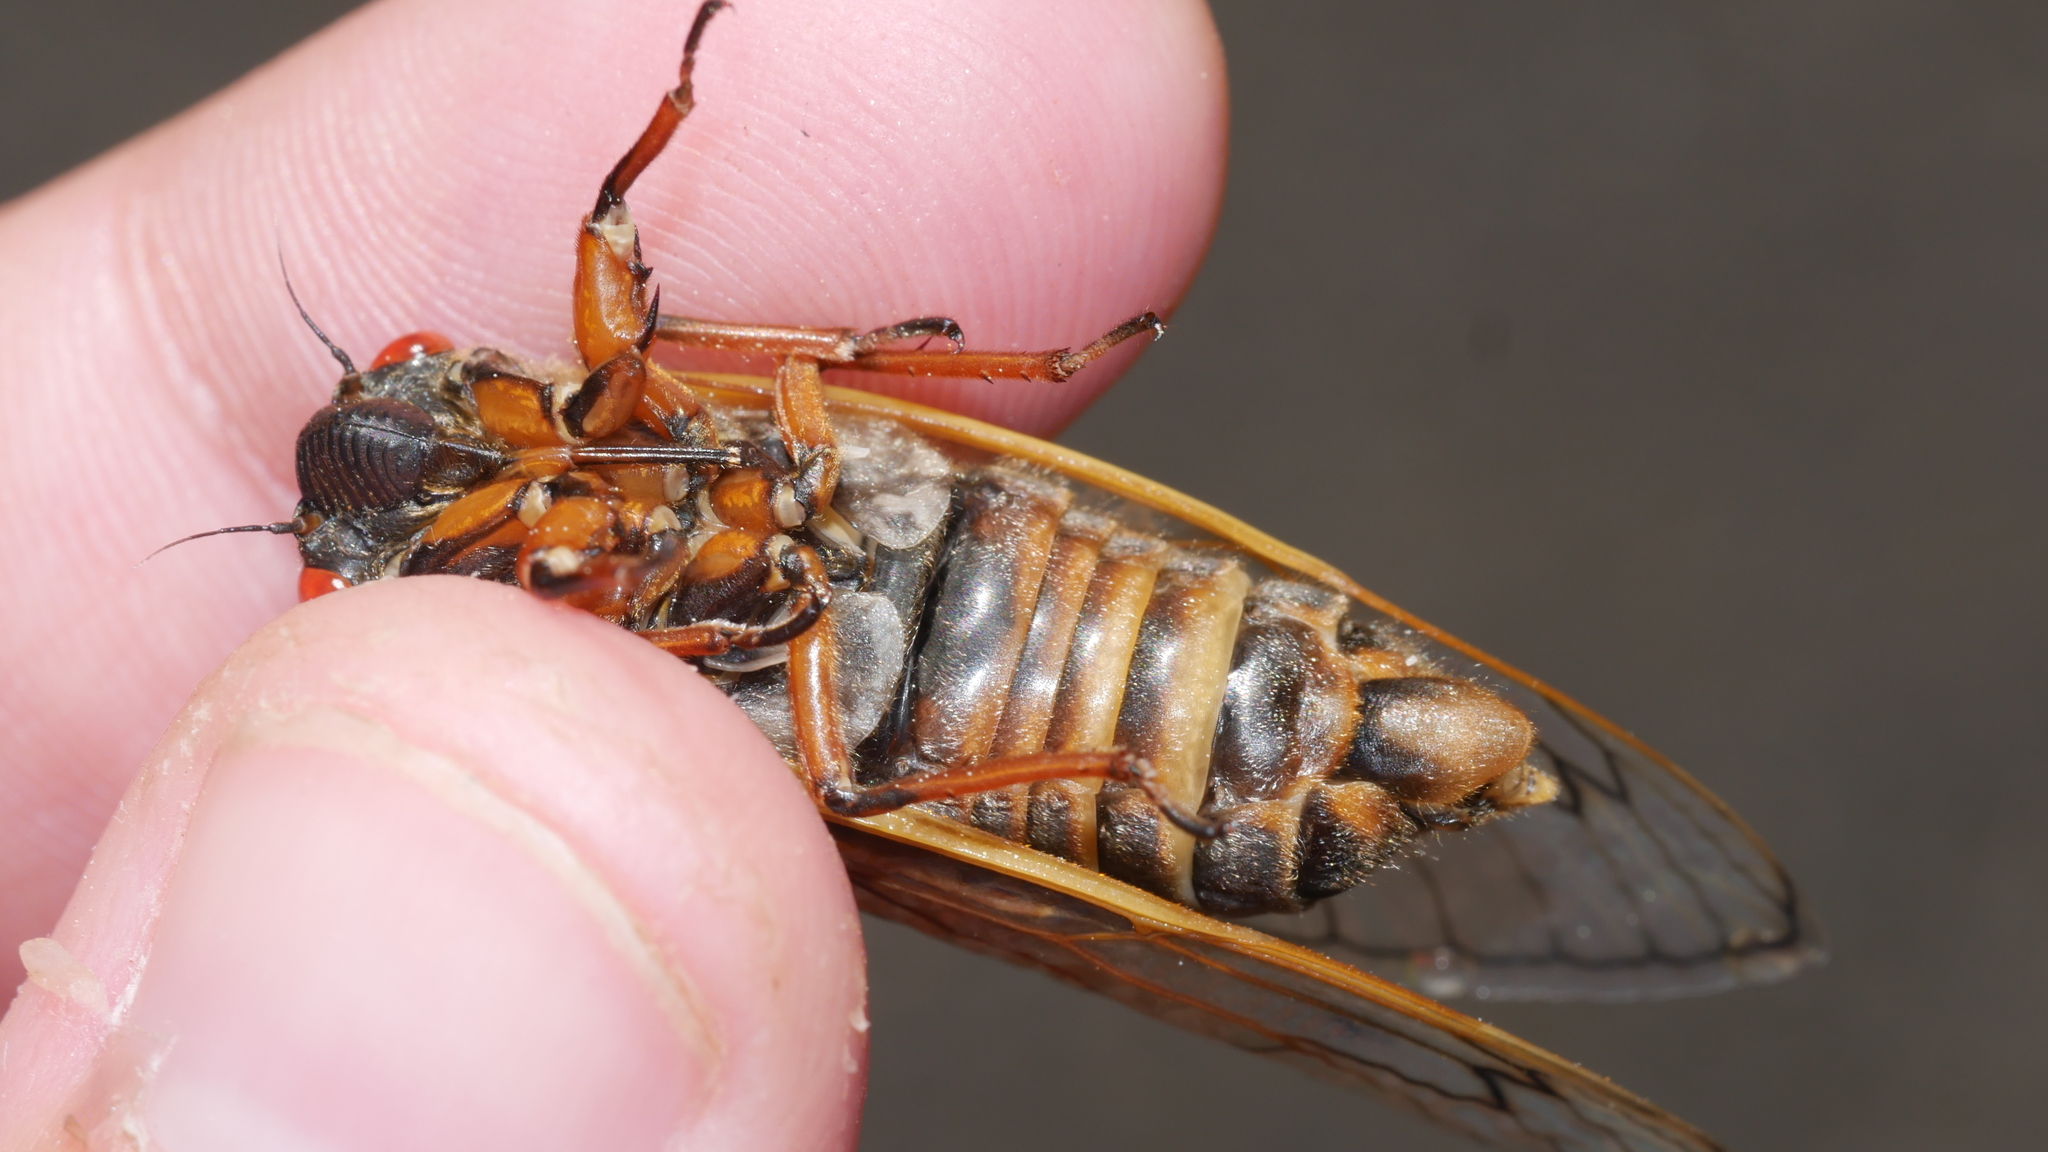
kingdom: Animalia
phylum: Arthropoda
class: Insecta
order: Hemiptera
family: Cicadidae
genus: Magicicada
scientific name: Magicicada septendecim
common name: Periodical cicada
